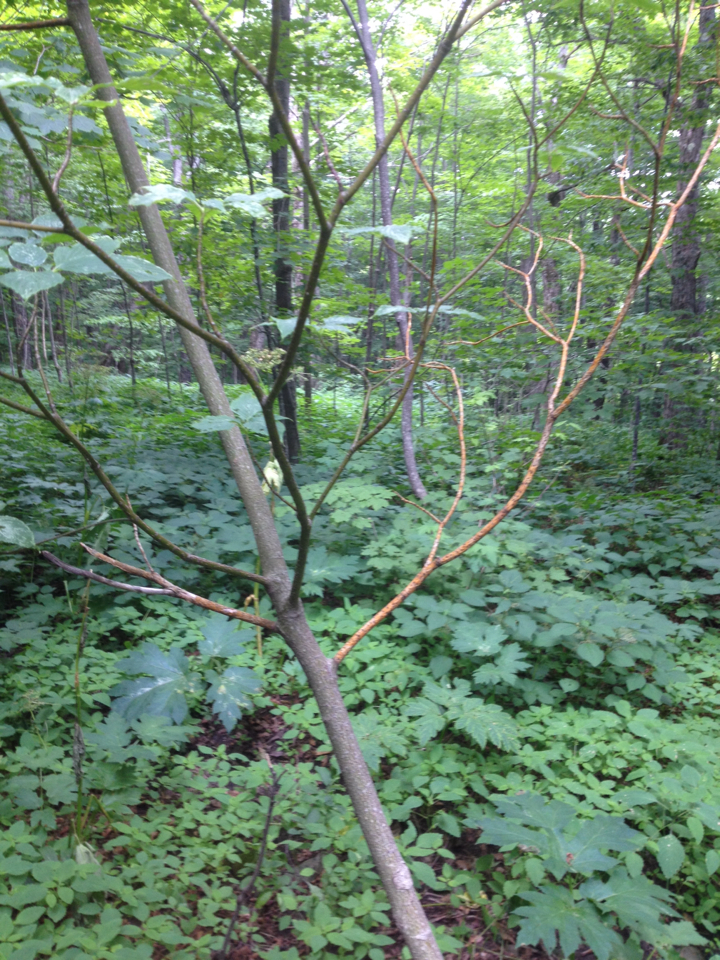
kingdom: Plantae
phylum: Tracheophyta
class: Magnoliopsida
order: Cornales
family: Cornaceae
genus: Cornus
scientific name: Cornus alternifolia
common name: Pagoda dogwood
